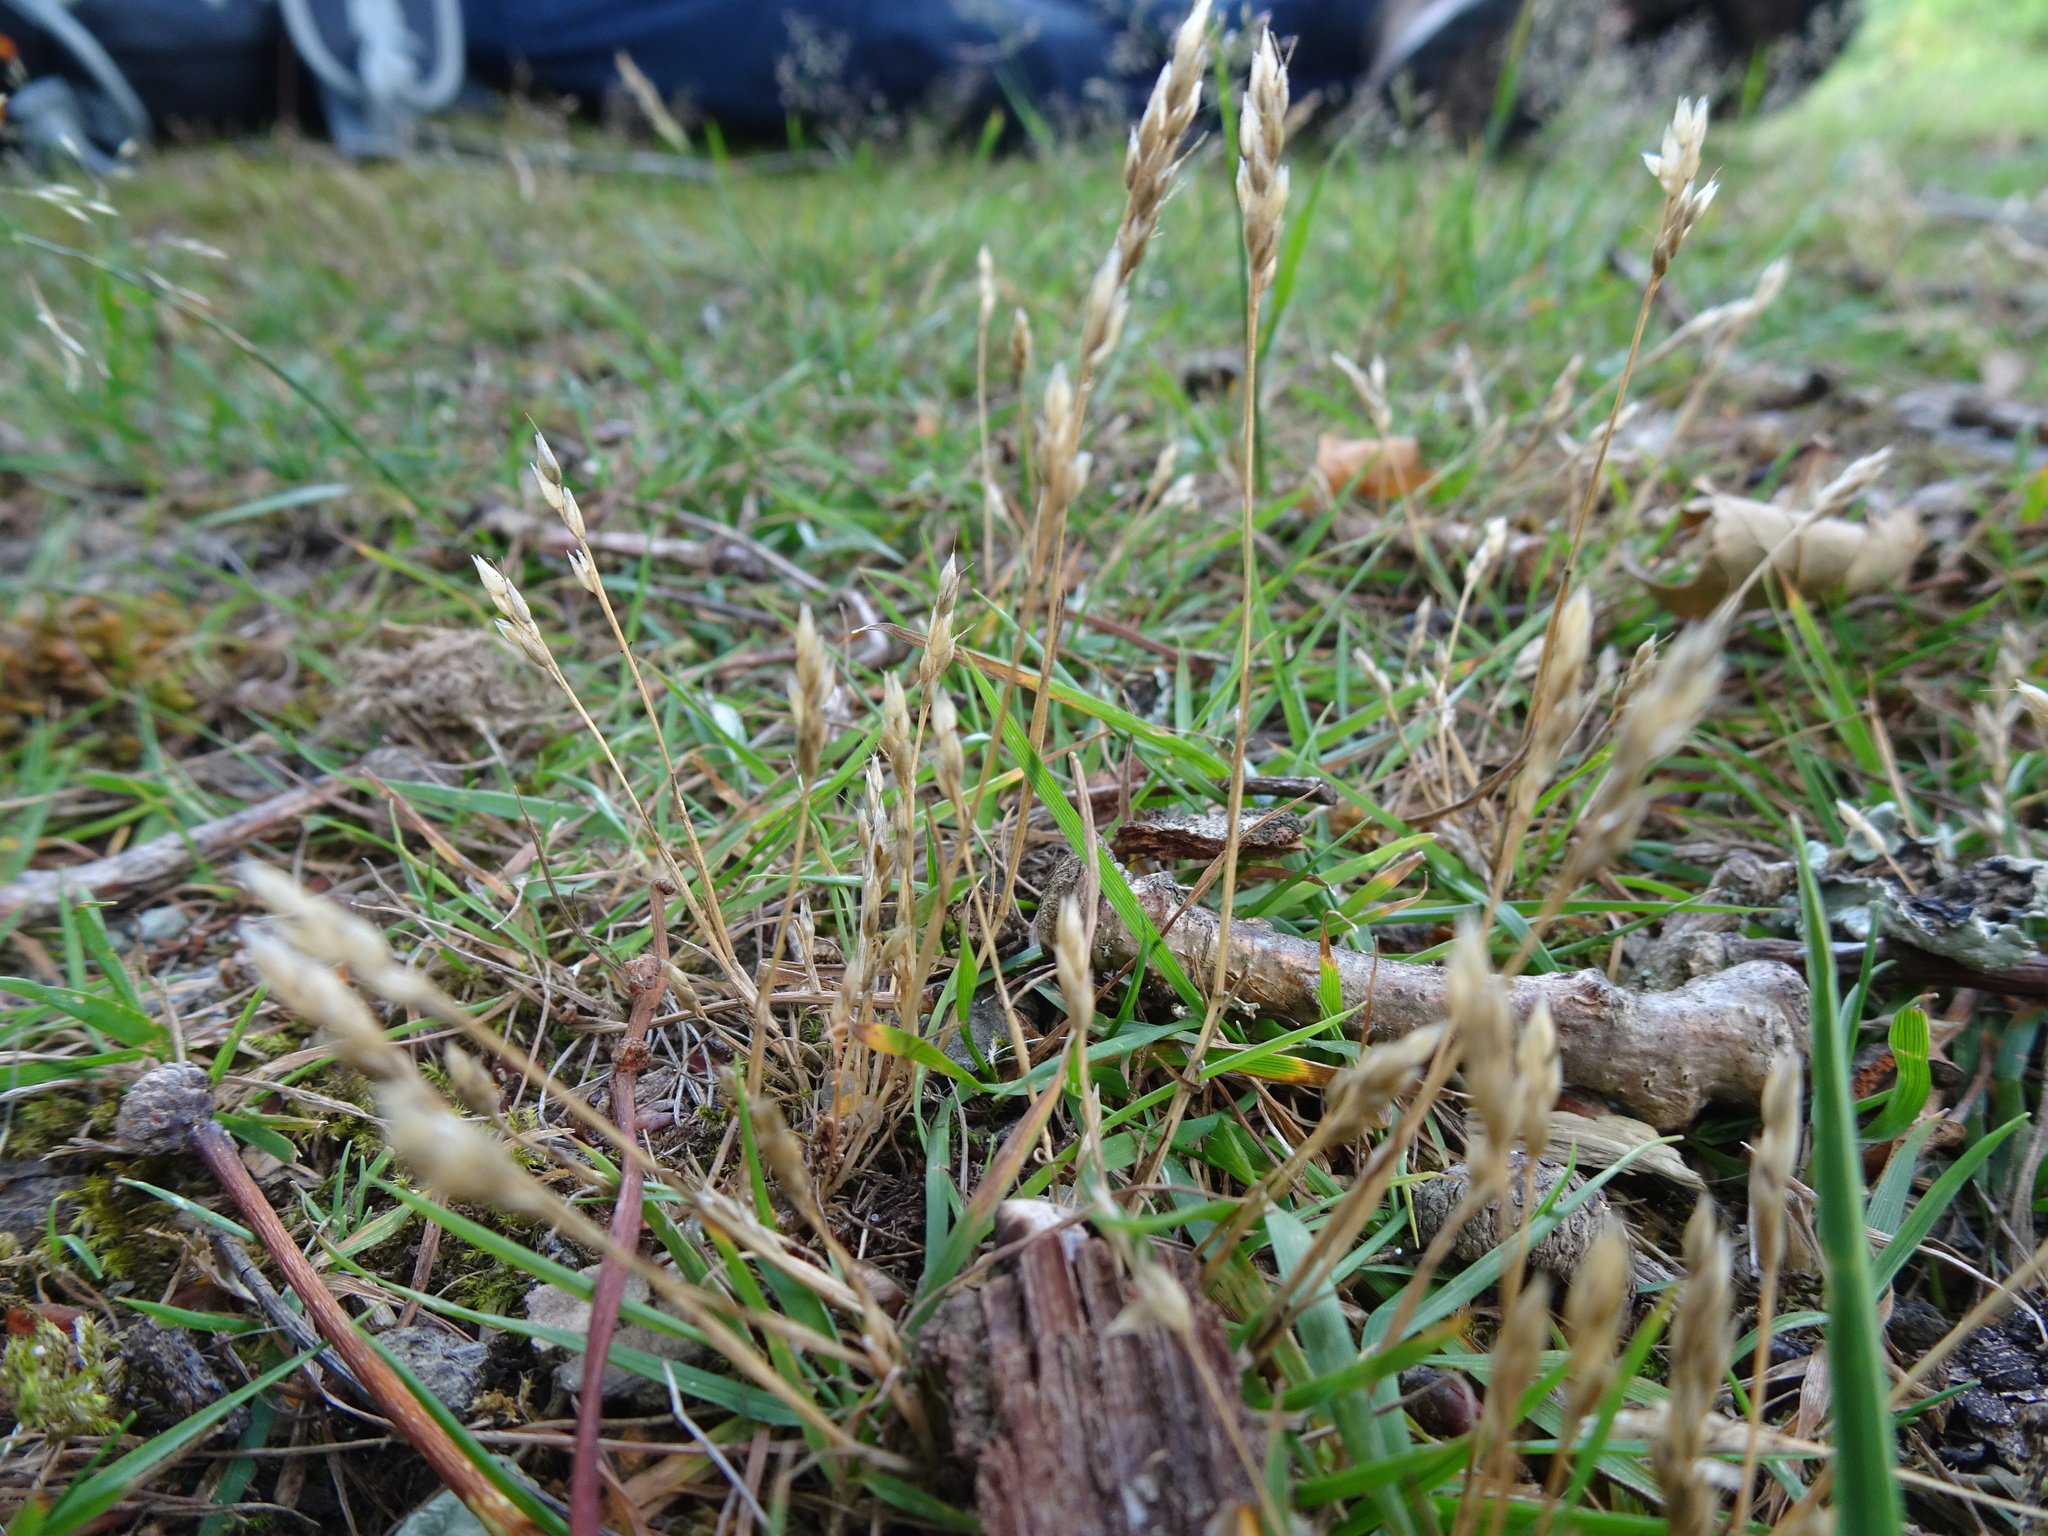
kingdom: Plantae
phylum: Tracheophyta
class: Liliopsida
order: Poales
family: Poaceae
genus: Aira
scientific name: Aira praecox
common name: Early hair-grass
